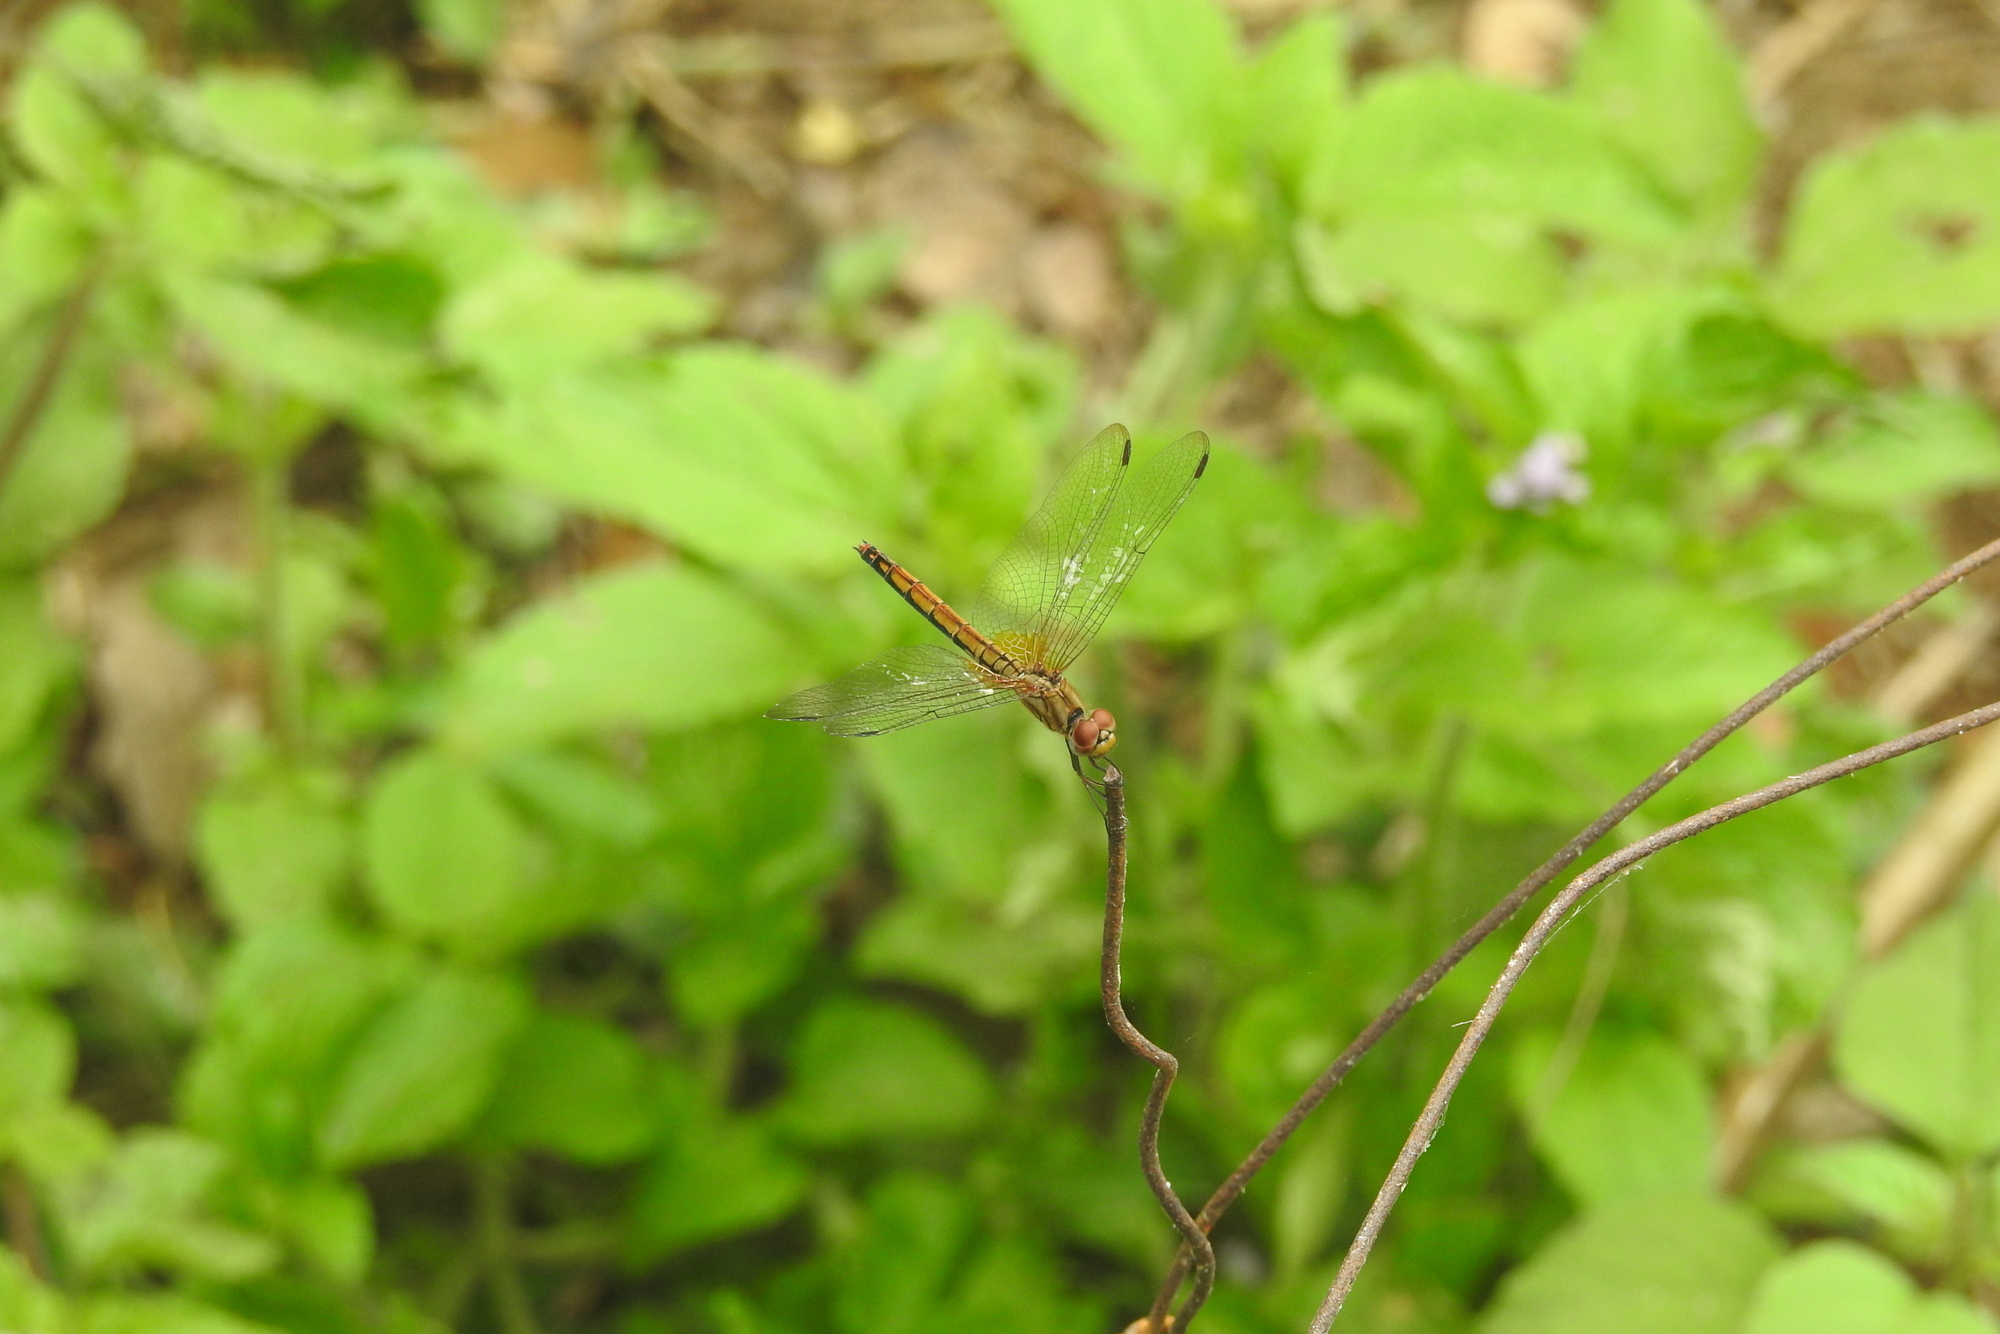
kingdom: Animalia
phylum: Arthropoda
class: Insecta
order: Odonata
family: Libellulidae
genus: Trithemis
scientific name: Trithemis aurora
